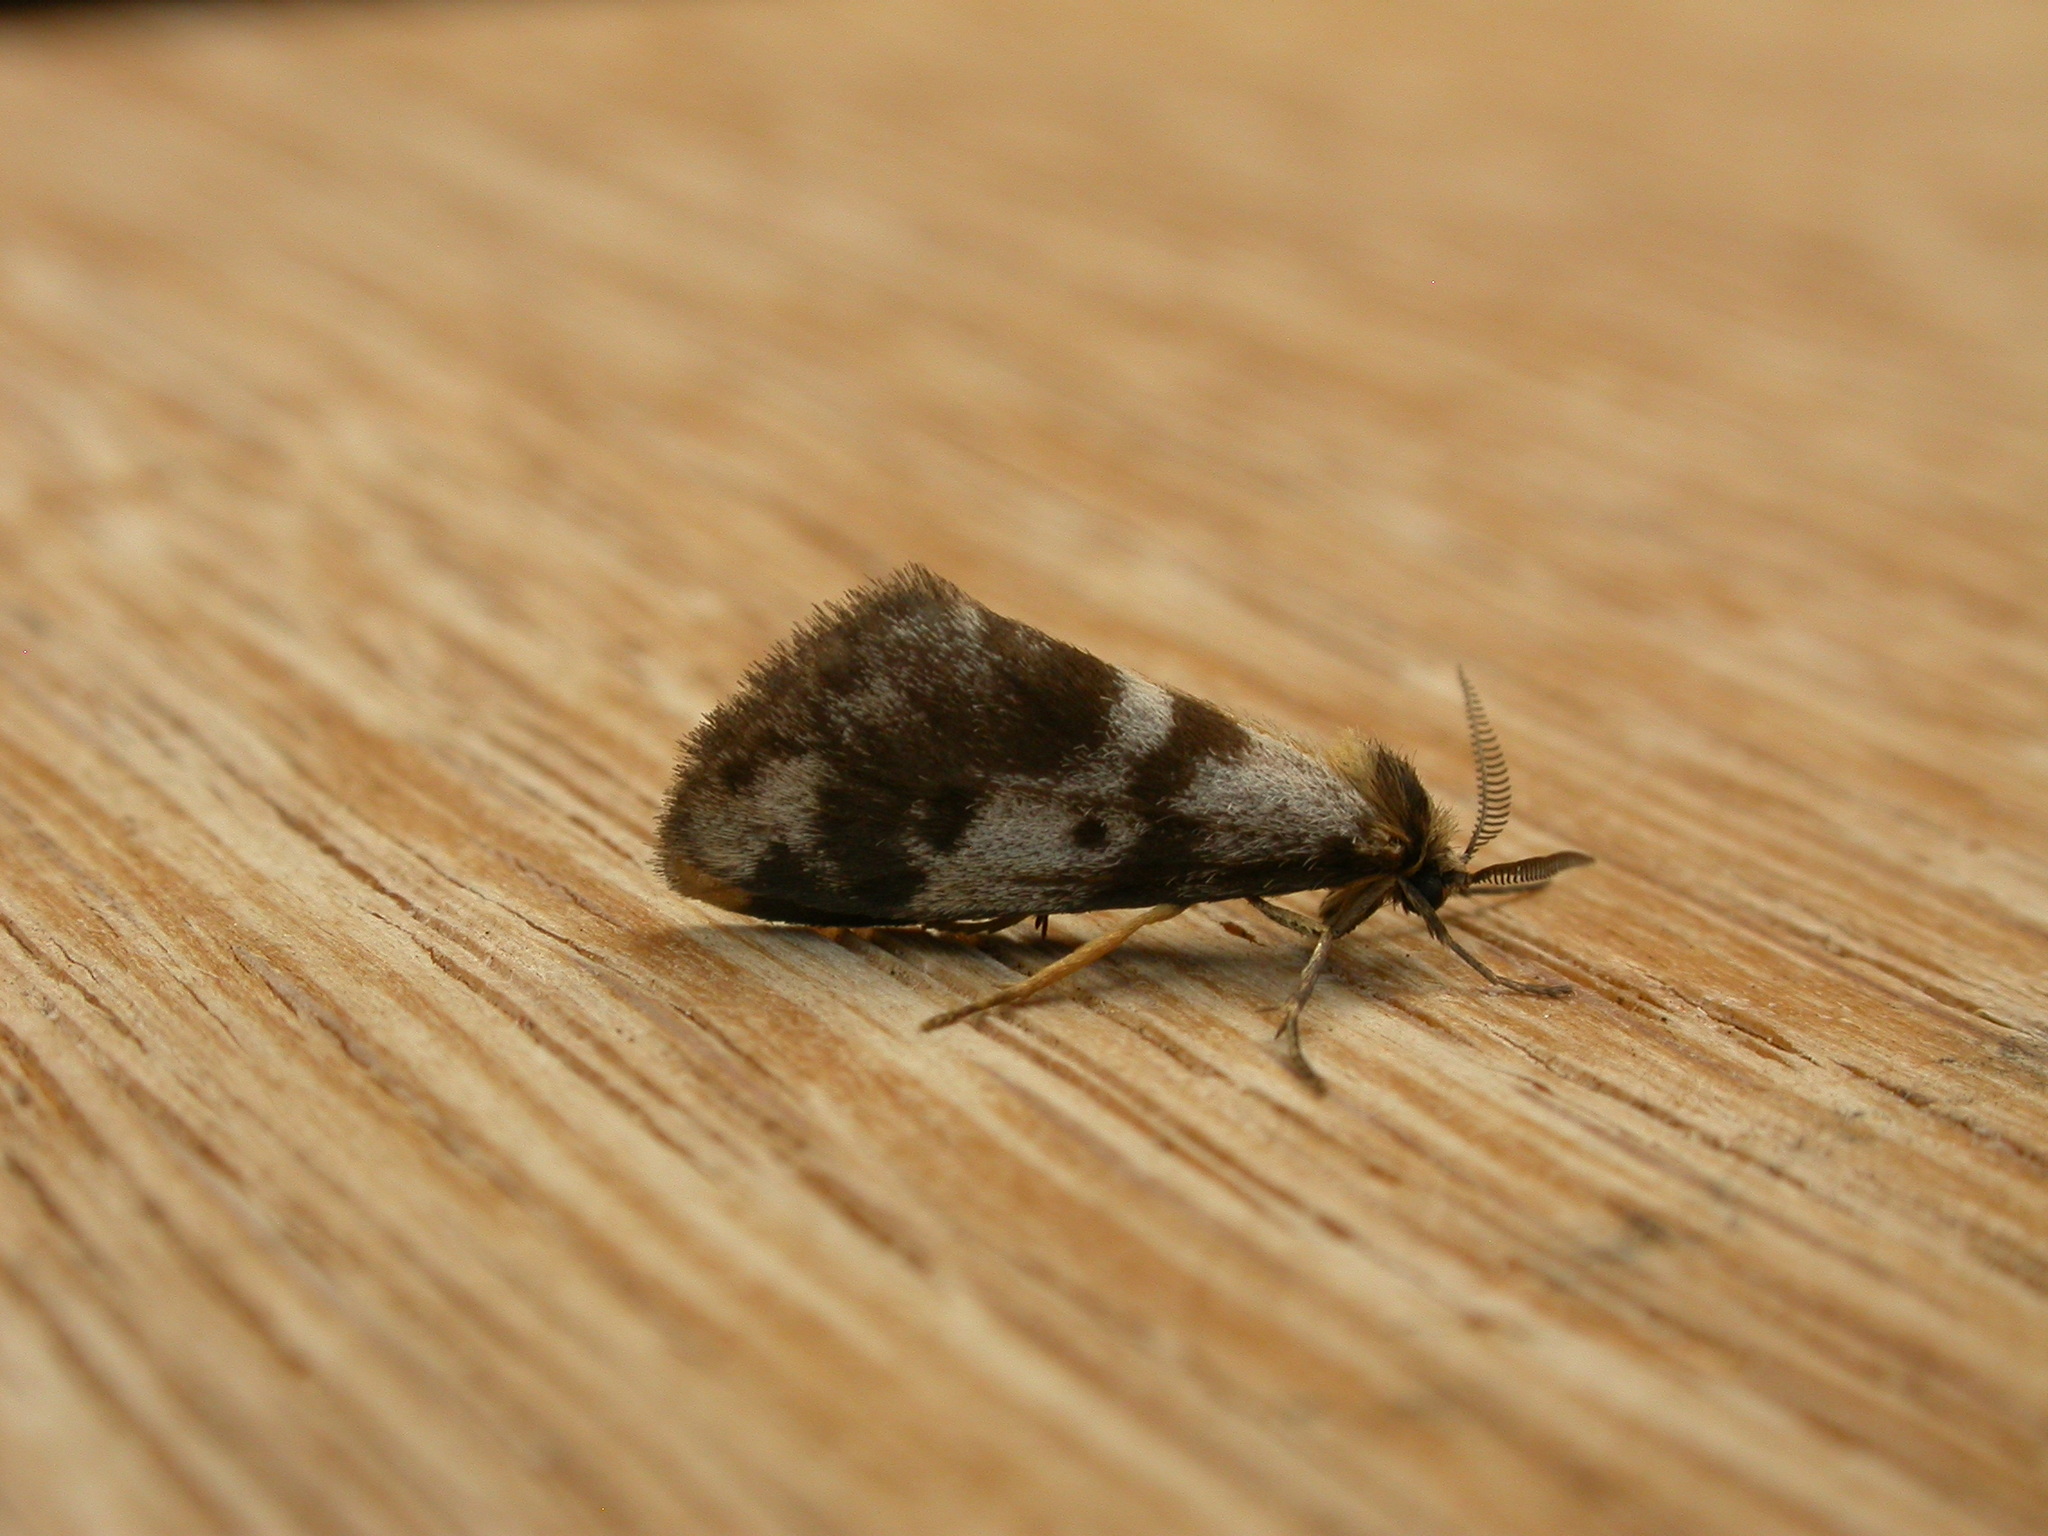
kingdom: Animalia
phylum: Arthropoda
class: Insecta
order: Lepidoptera
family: Erebidae
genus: Anestia
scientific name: Anestia
